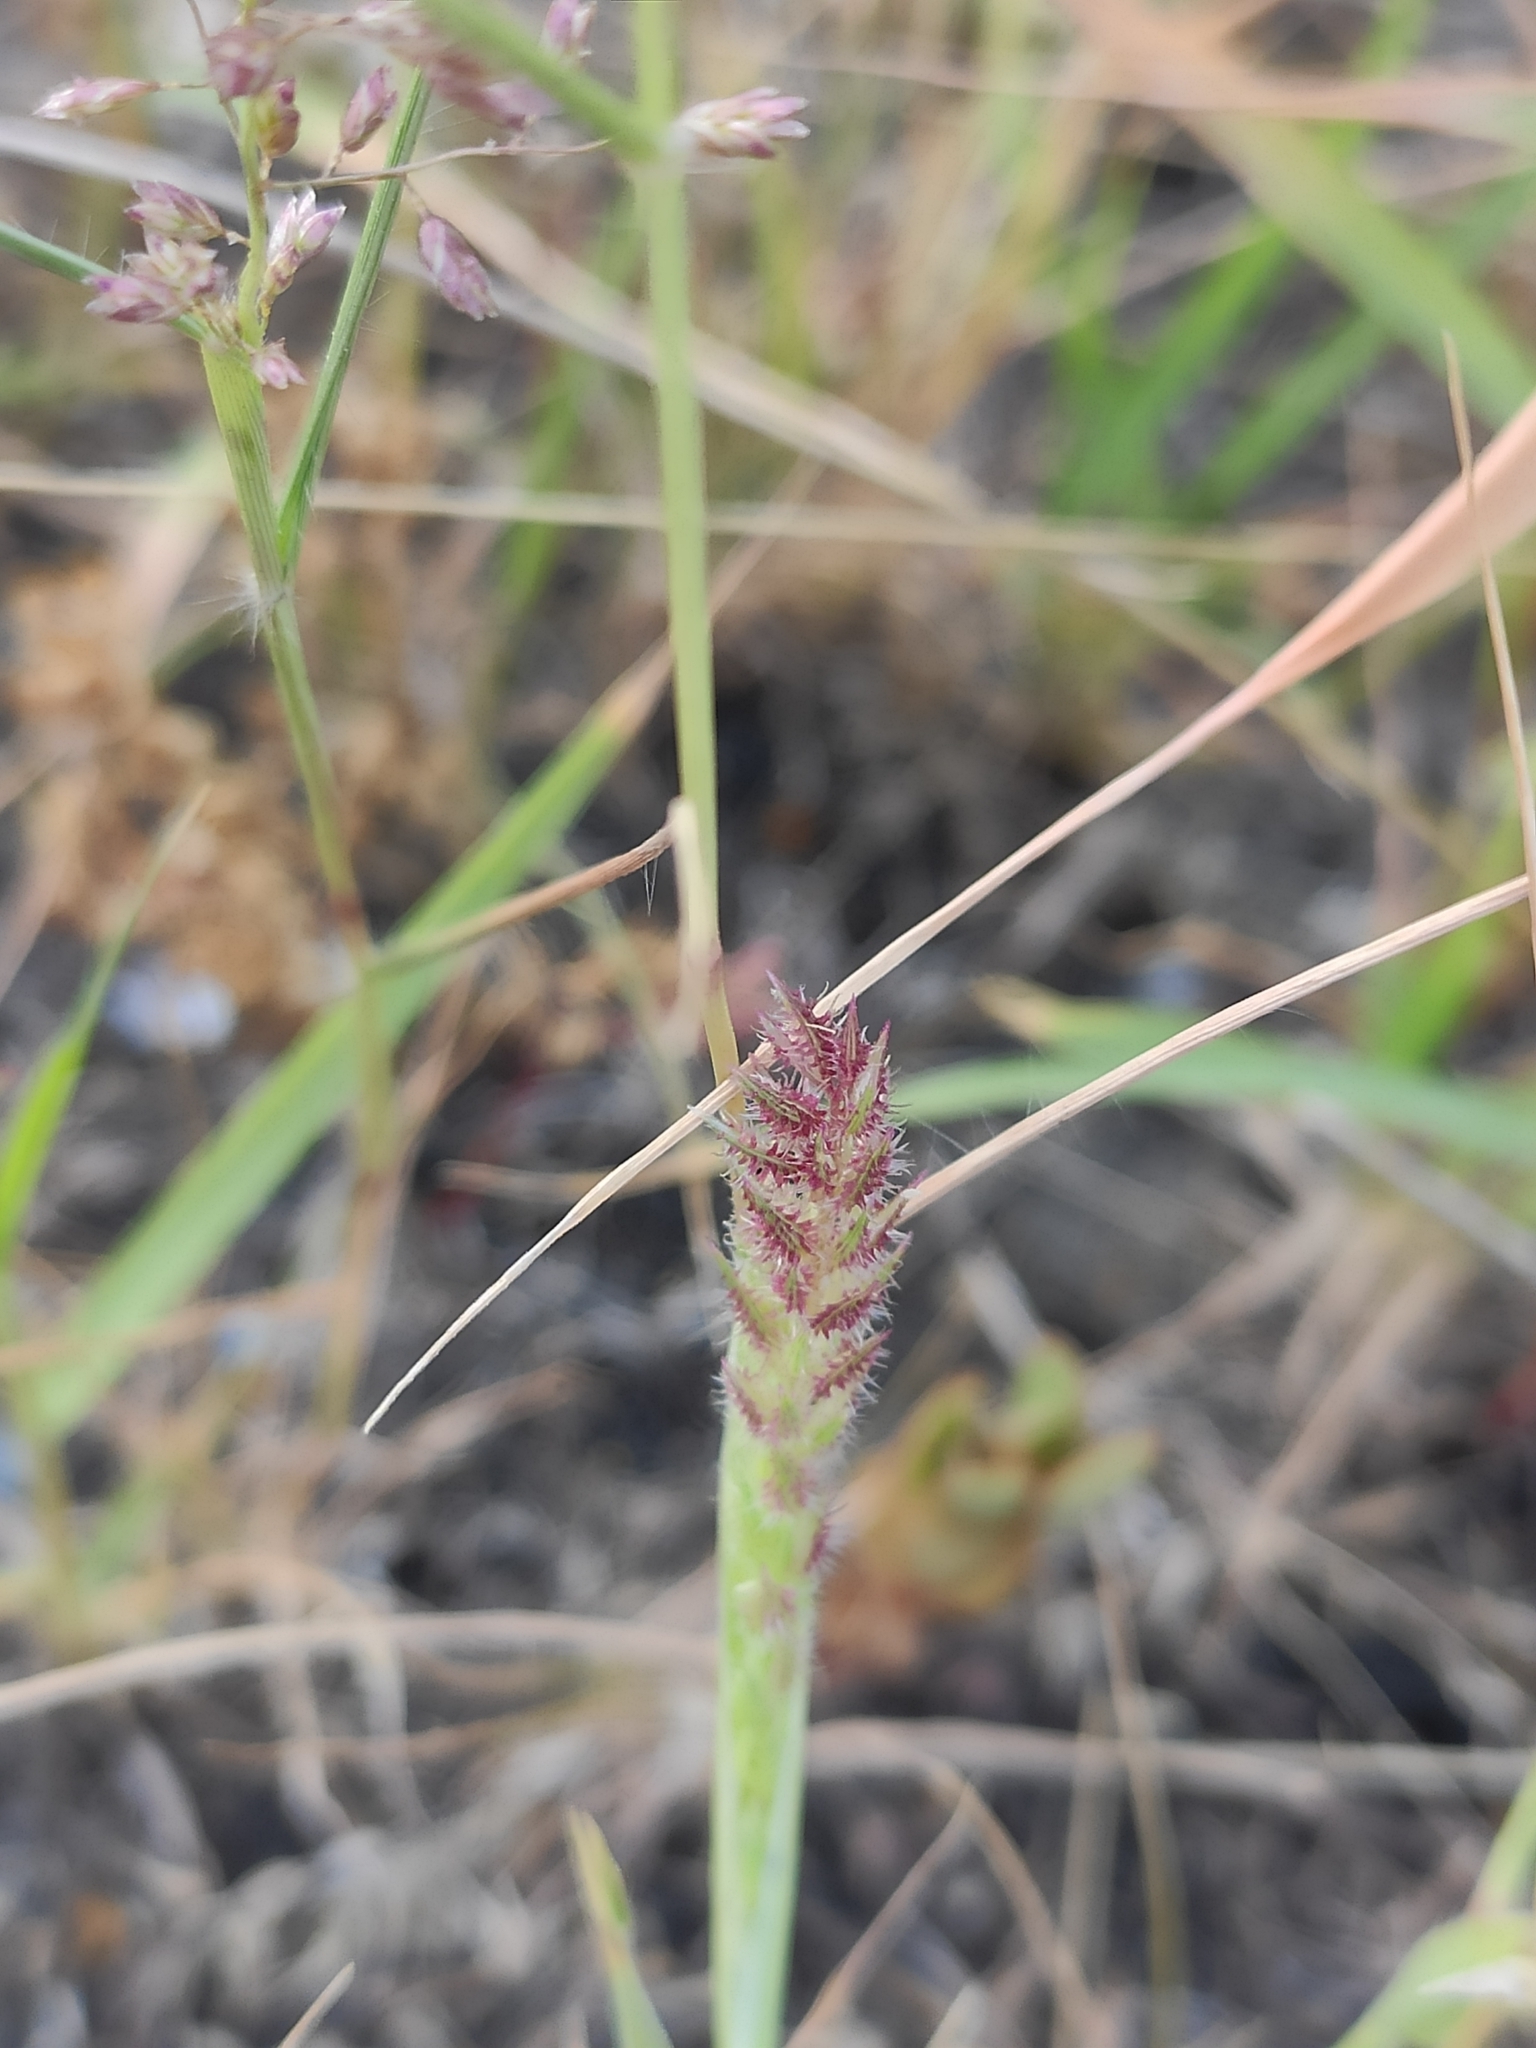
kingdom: Plantae
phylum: Tracheophyta
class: Liliopsida
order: Poales
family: Poaceae
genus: Tragus
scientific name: Tragus racemosus
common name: European bur-grass
